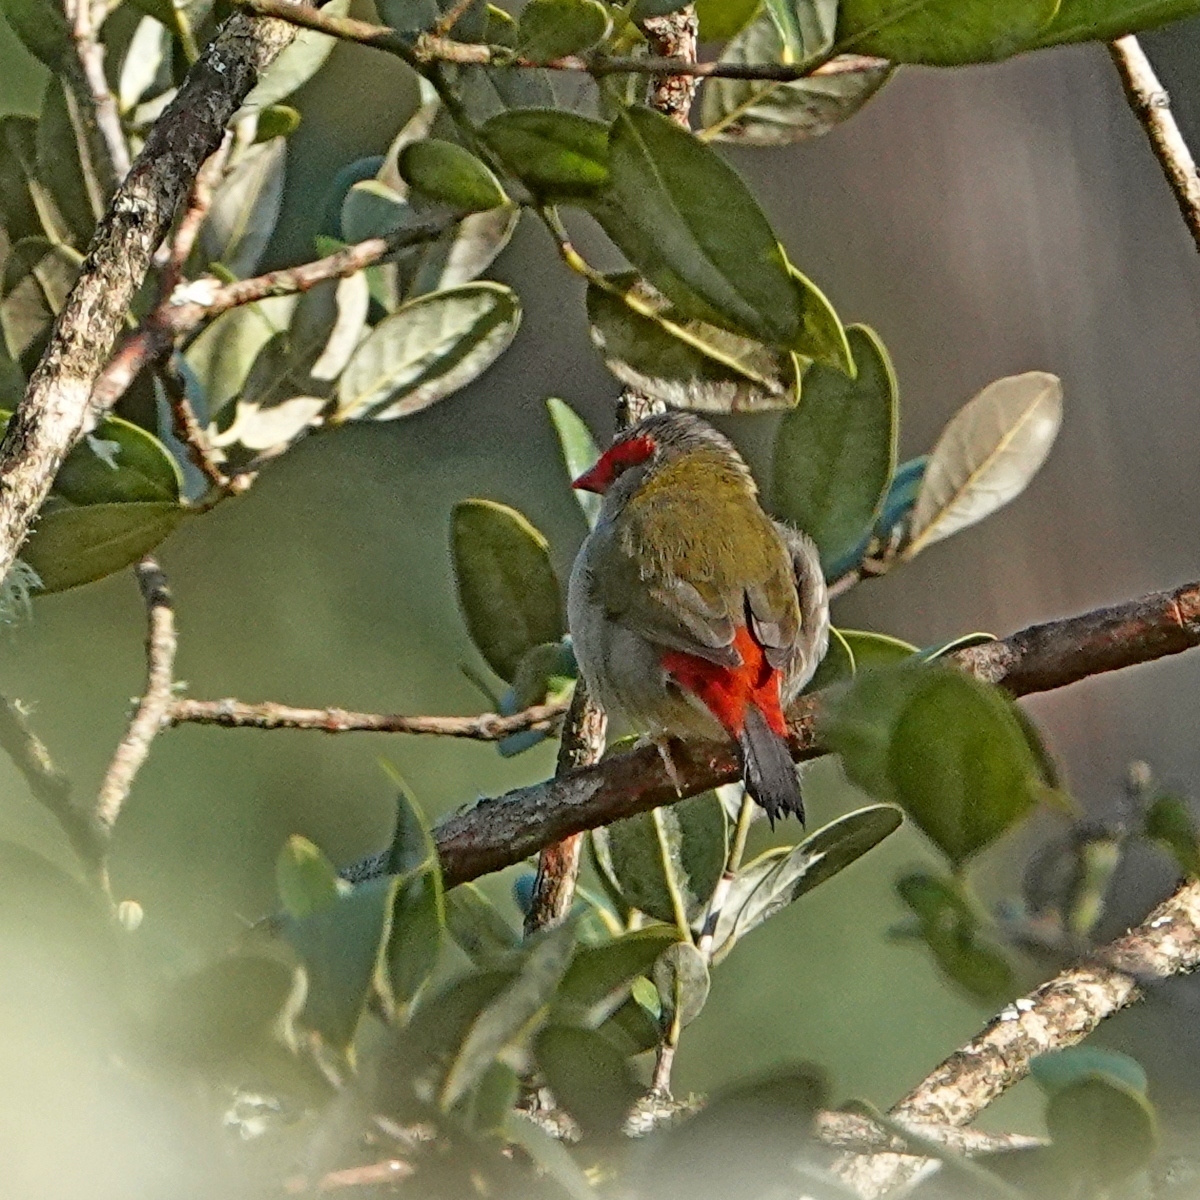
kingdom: Animalia
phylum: Chordata
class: Aves
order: Passeriformes
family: Estrildidae
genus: Neochmia
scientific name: Neochmia temporalis
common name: Red-browed finch
